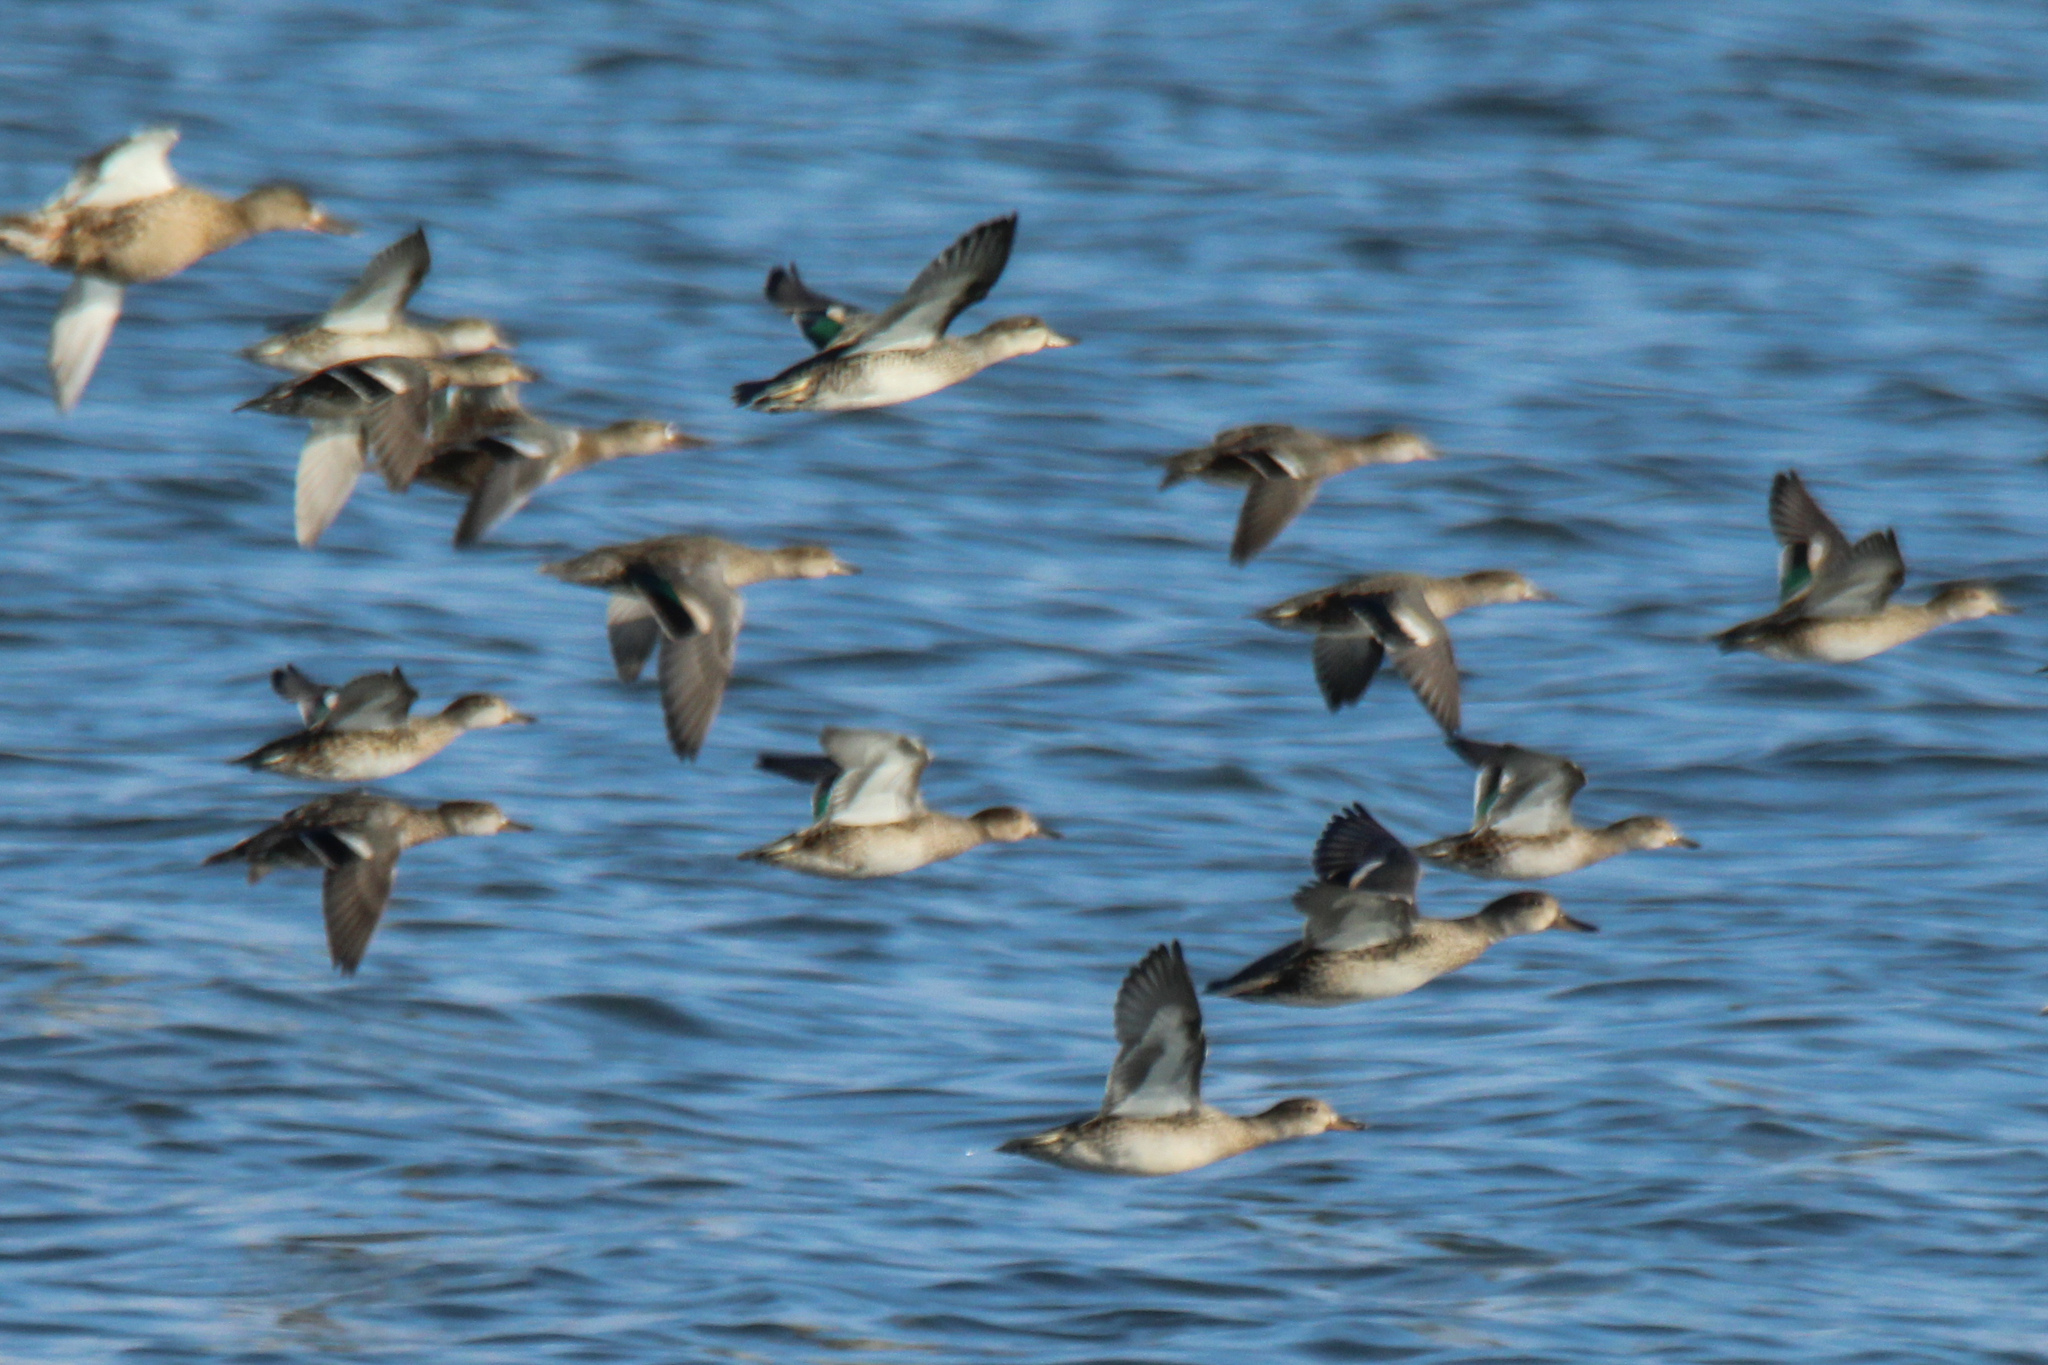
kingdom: Animalia
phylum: Chordata
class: Aves
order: Anseriformes
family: Anatidae
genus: Anas
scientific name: Anas crecca
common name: Eurasian teal
